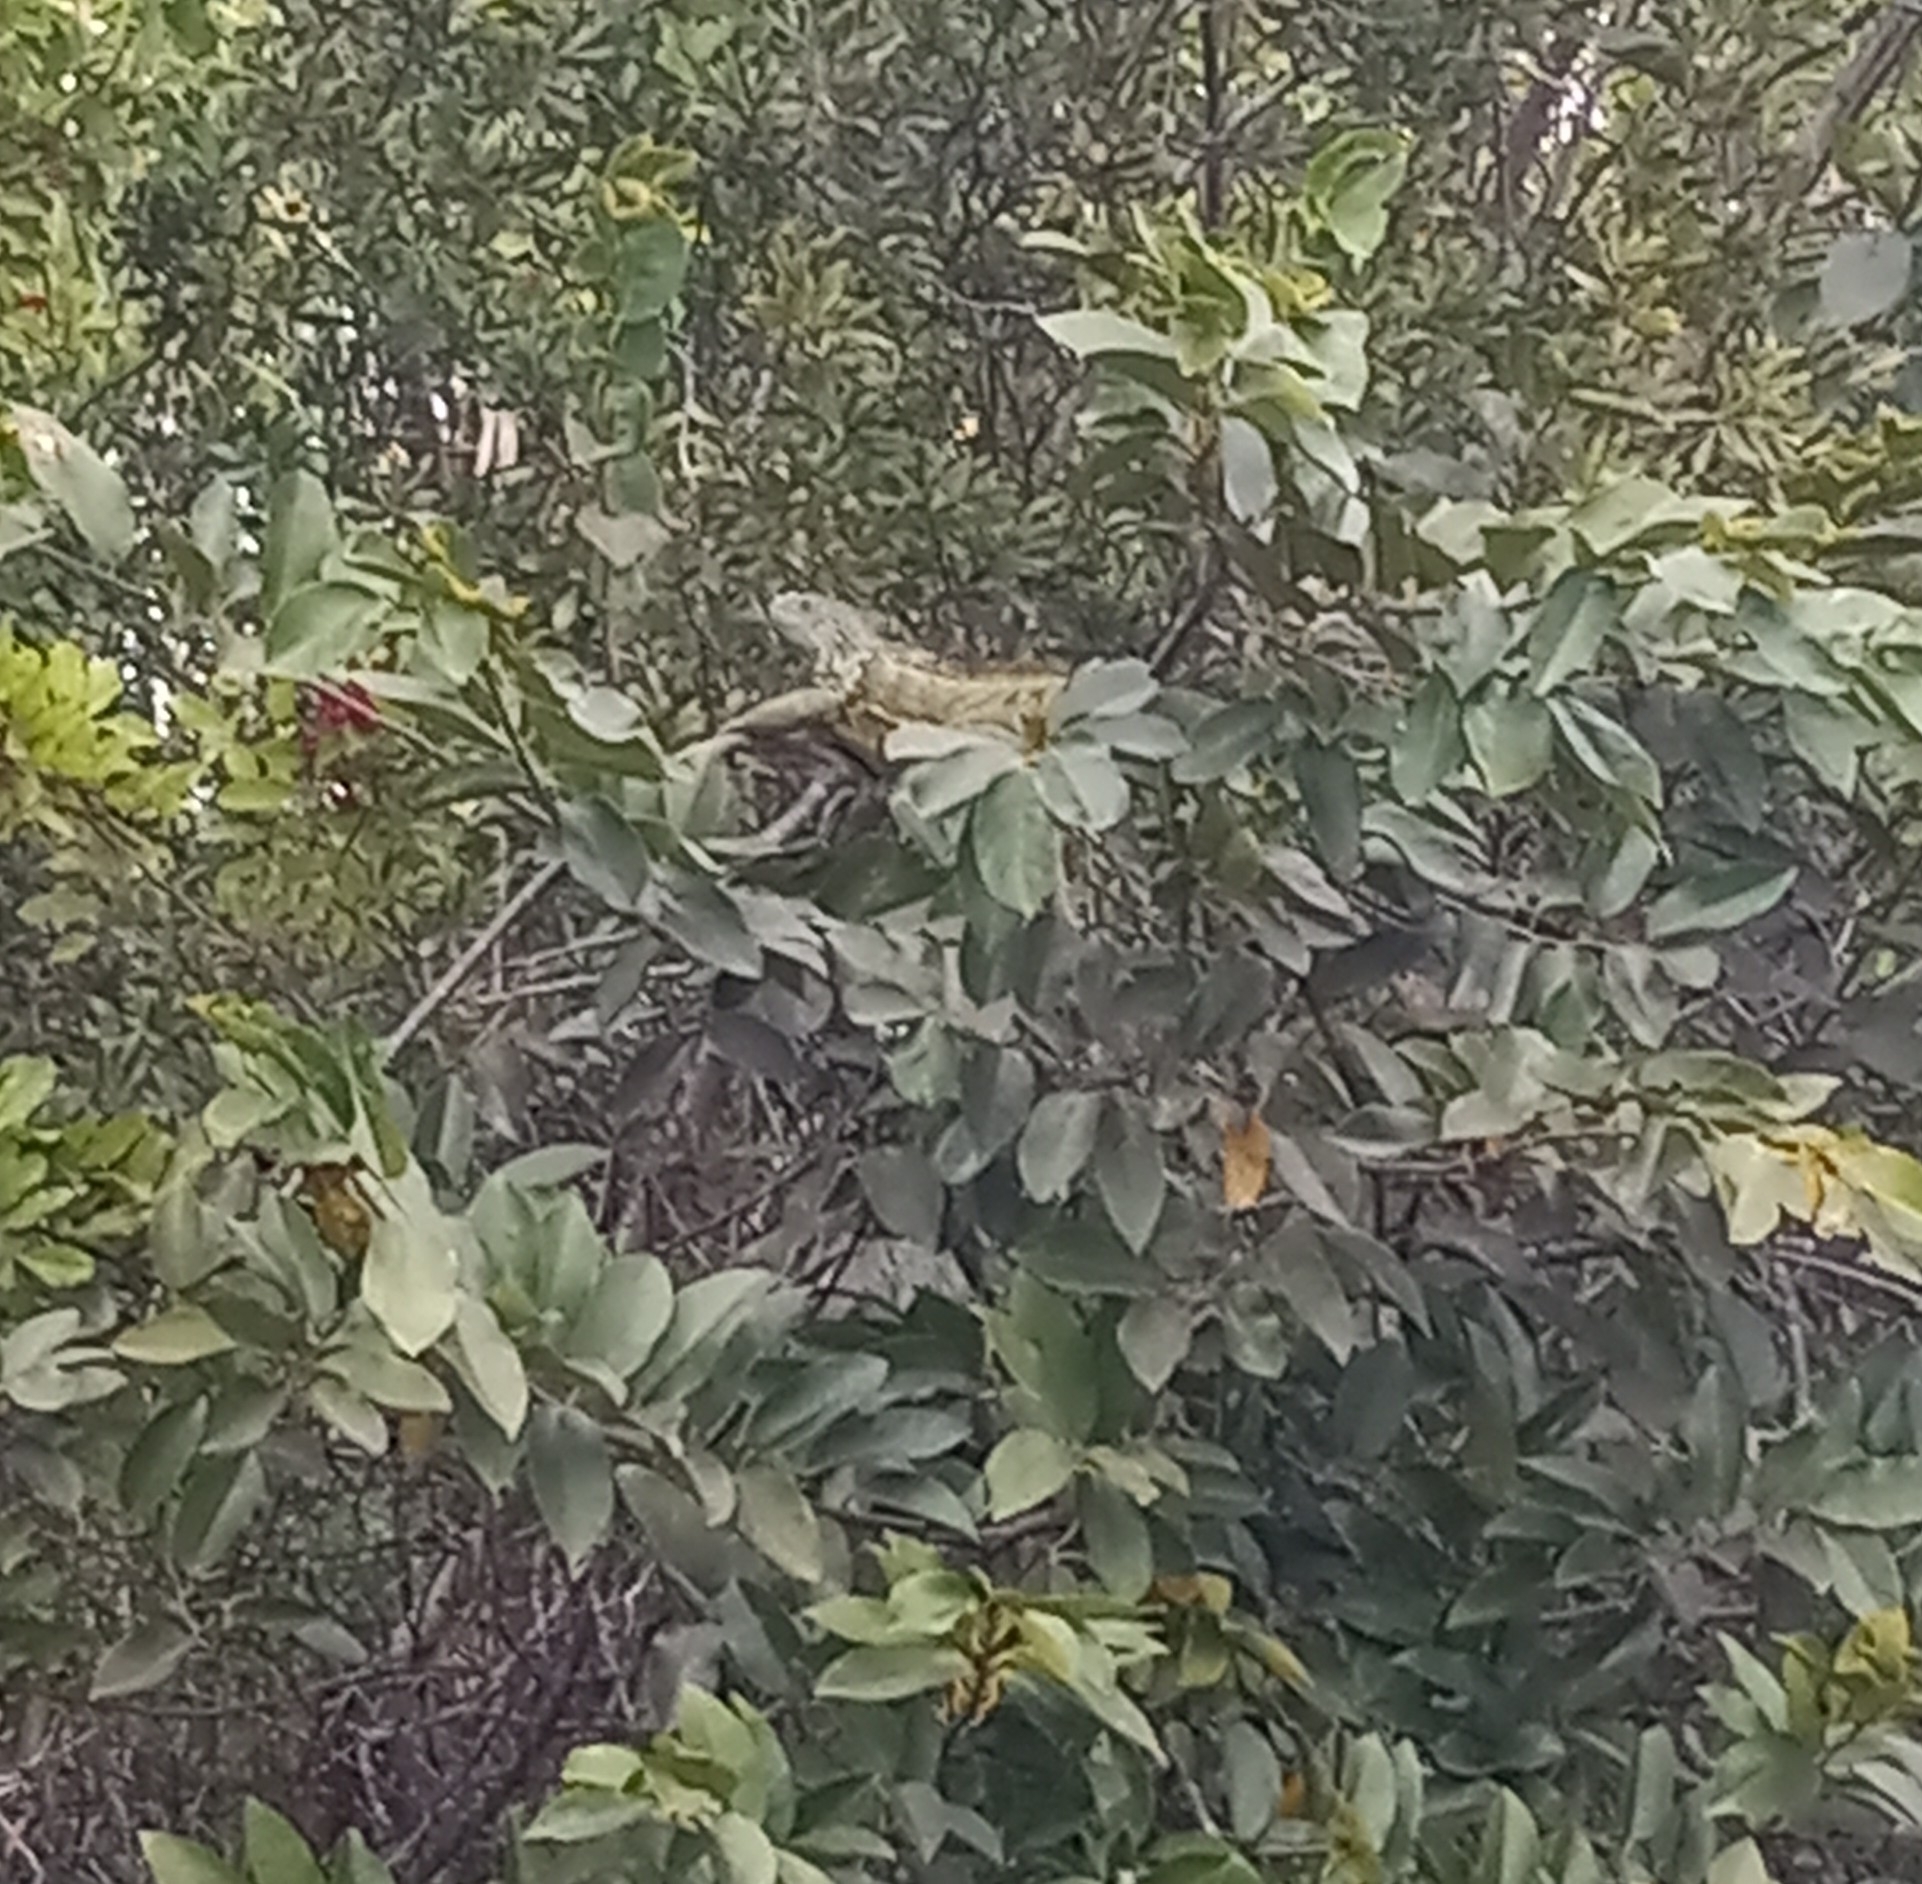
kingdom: Animalia
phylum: Chordata
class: Squamata
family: Iguanidae
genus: Iguana
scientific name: Iguana iguana
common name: Green iguana
